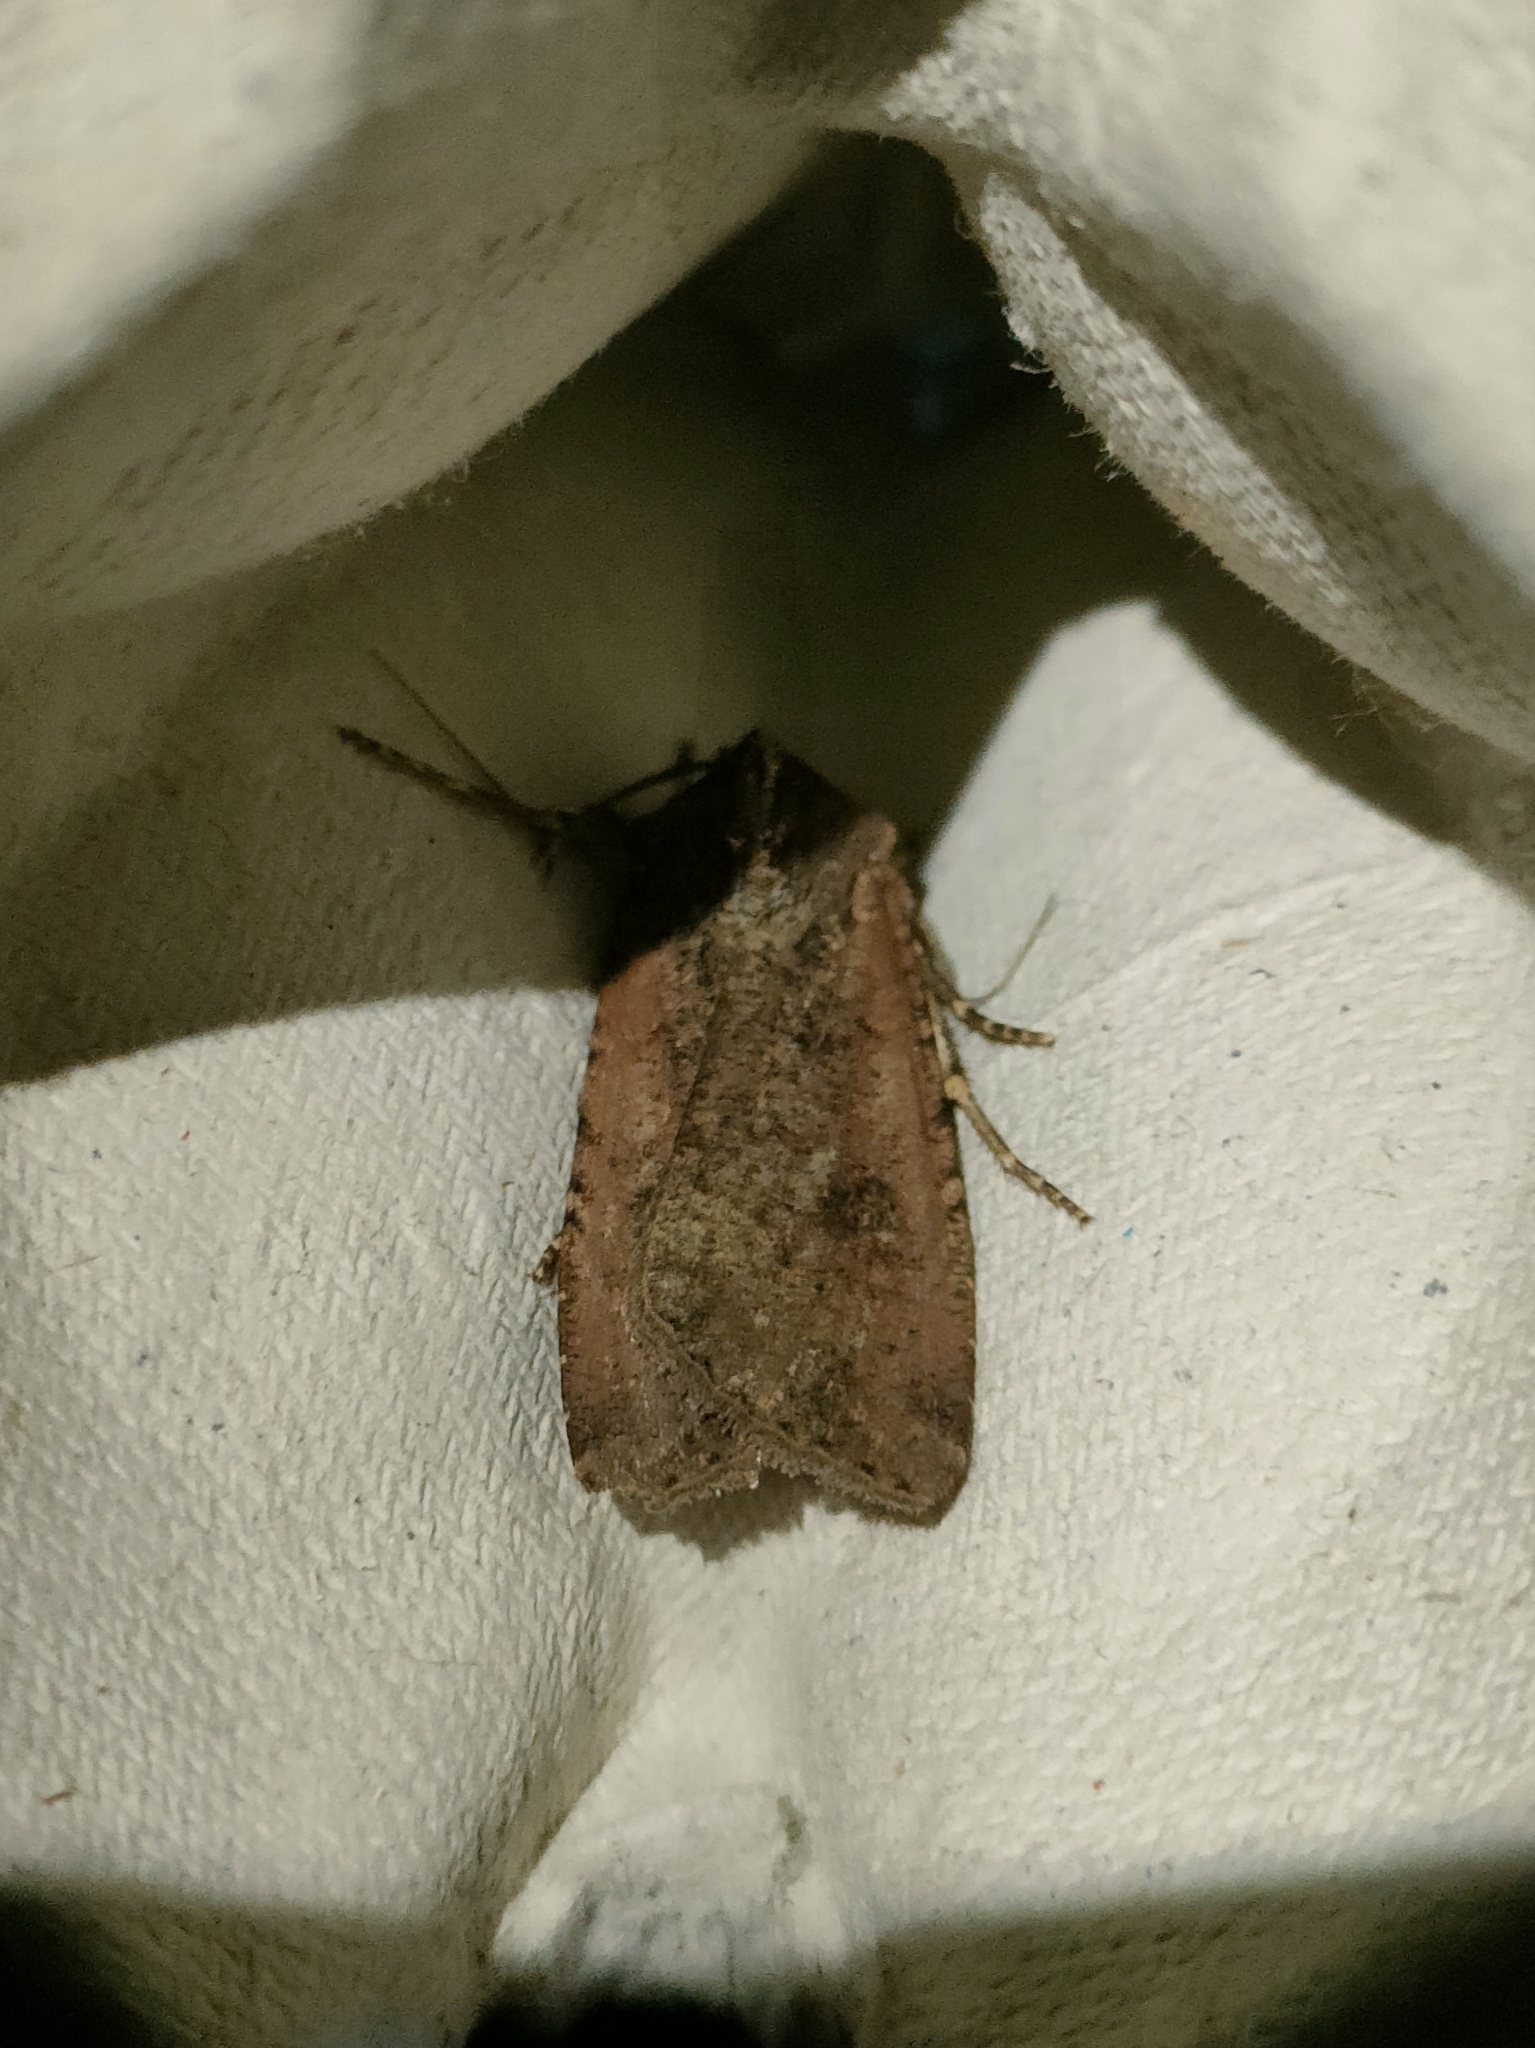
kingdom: Animalia
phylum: Arthropoda
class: Insecta
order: Lepidoptera
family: Noctuidae
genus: Peridroma
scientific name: Peridroma saucia
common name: Pearly underwing
